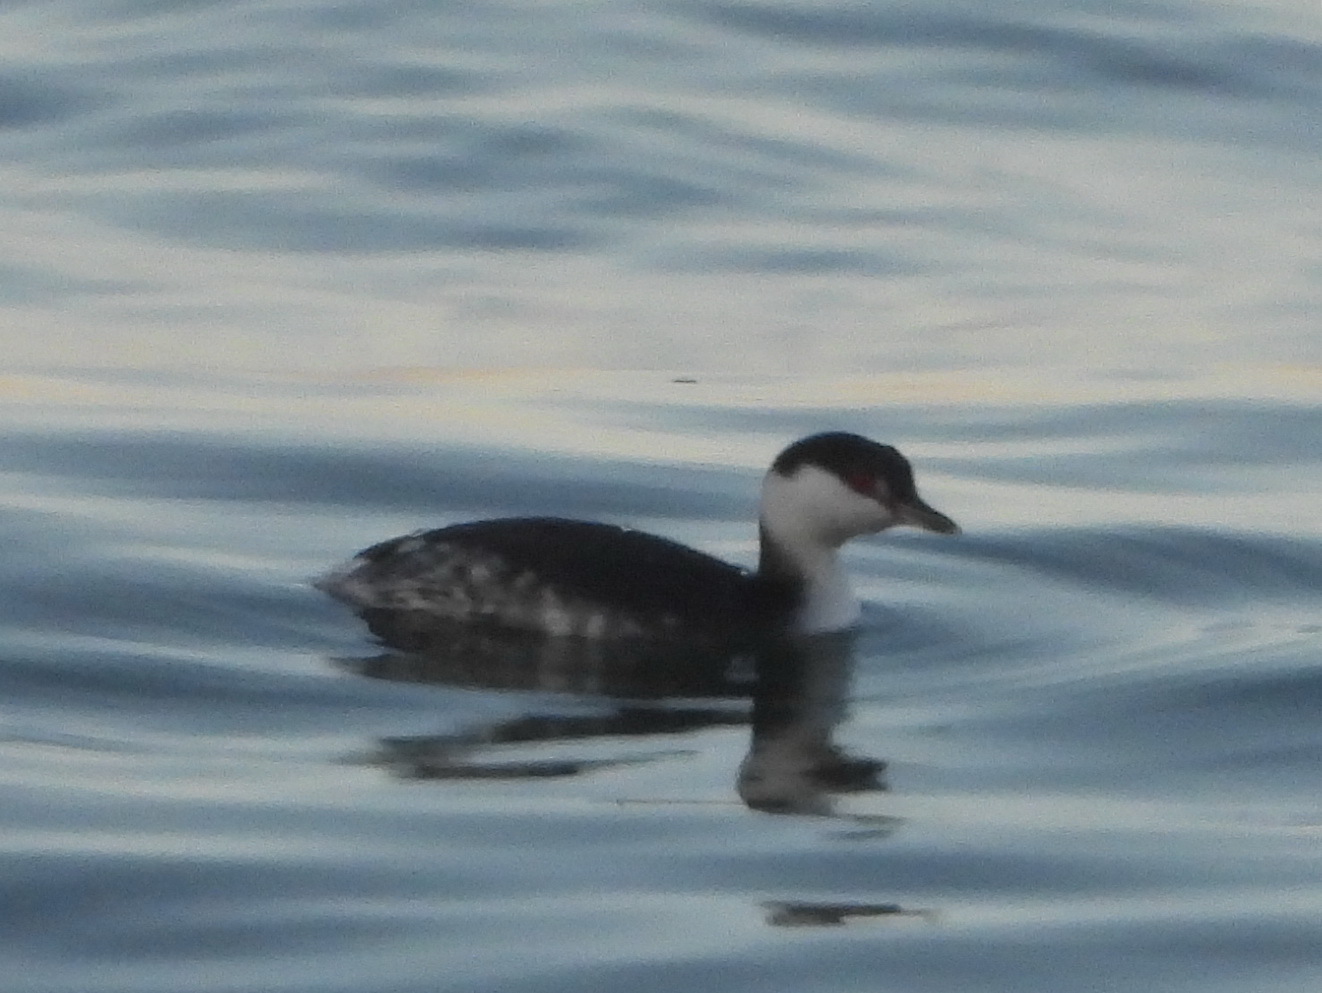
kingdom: Animalia
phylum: Chordata
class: Aves
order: Podicipediformes
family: Podicipedidae
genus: Podiceps
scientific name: Podiceps auritus
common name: Horned grebe
